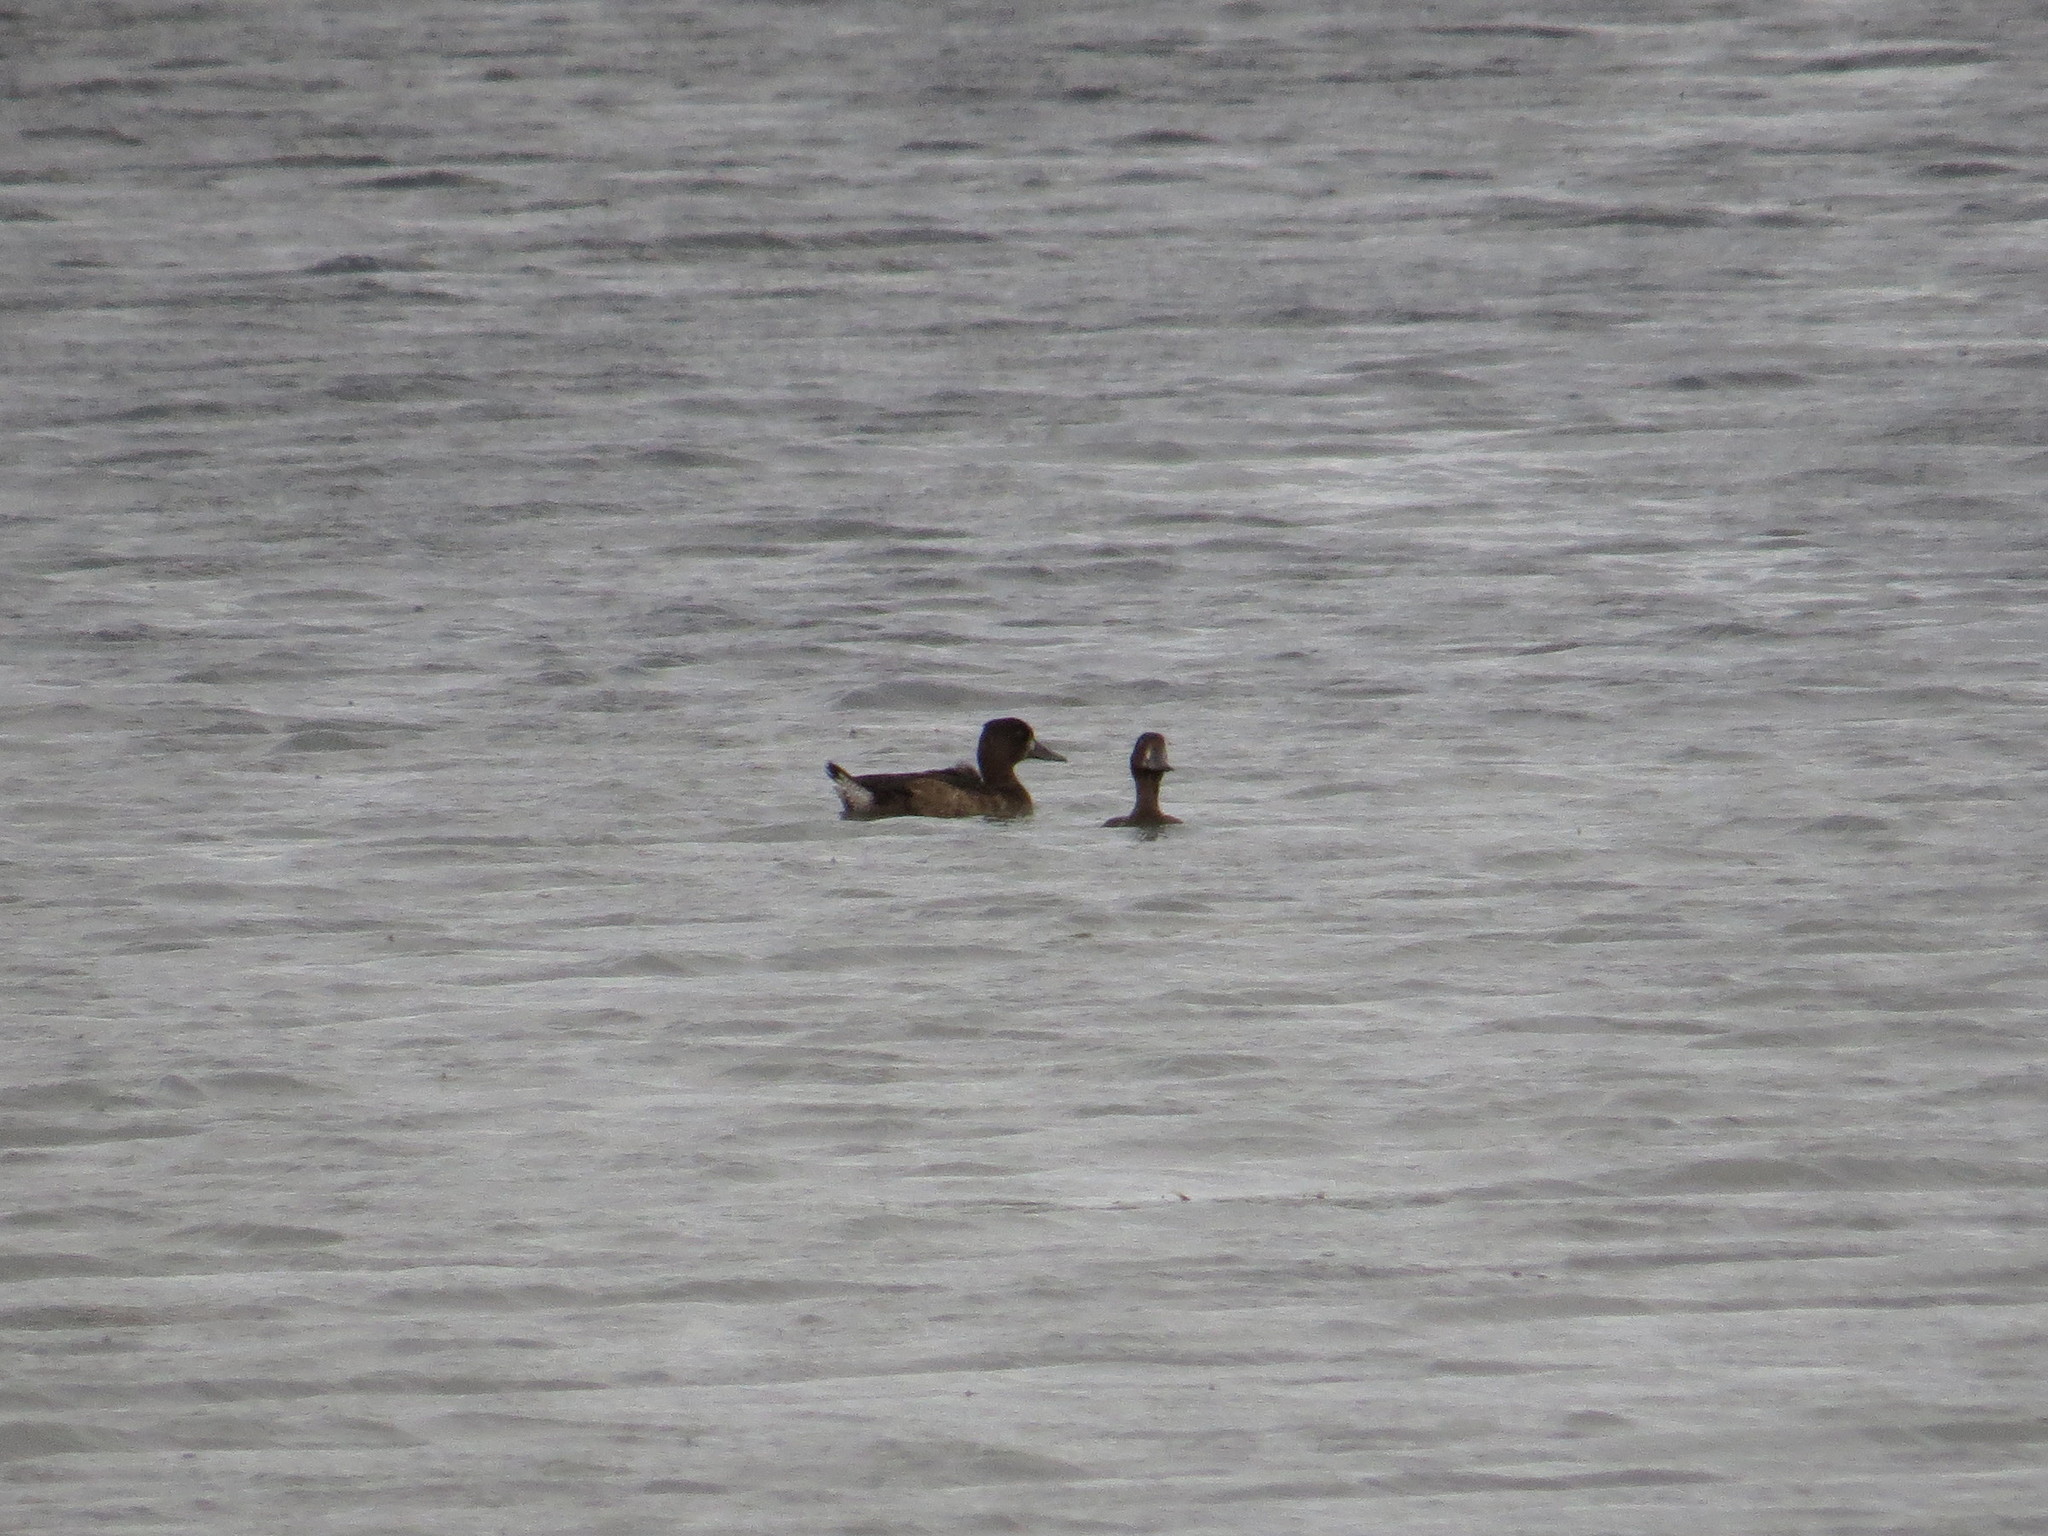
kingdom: Animalia
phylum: Chordata
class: Aves
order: Anseriformes
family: Anatidae
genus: Aythya
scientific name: Aythya fuligula
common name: Tufted duck
